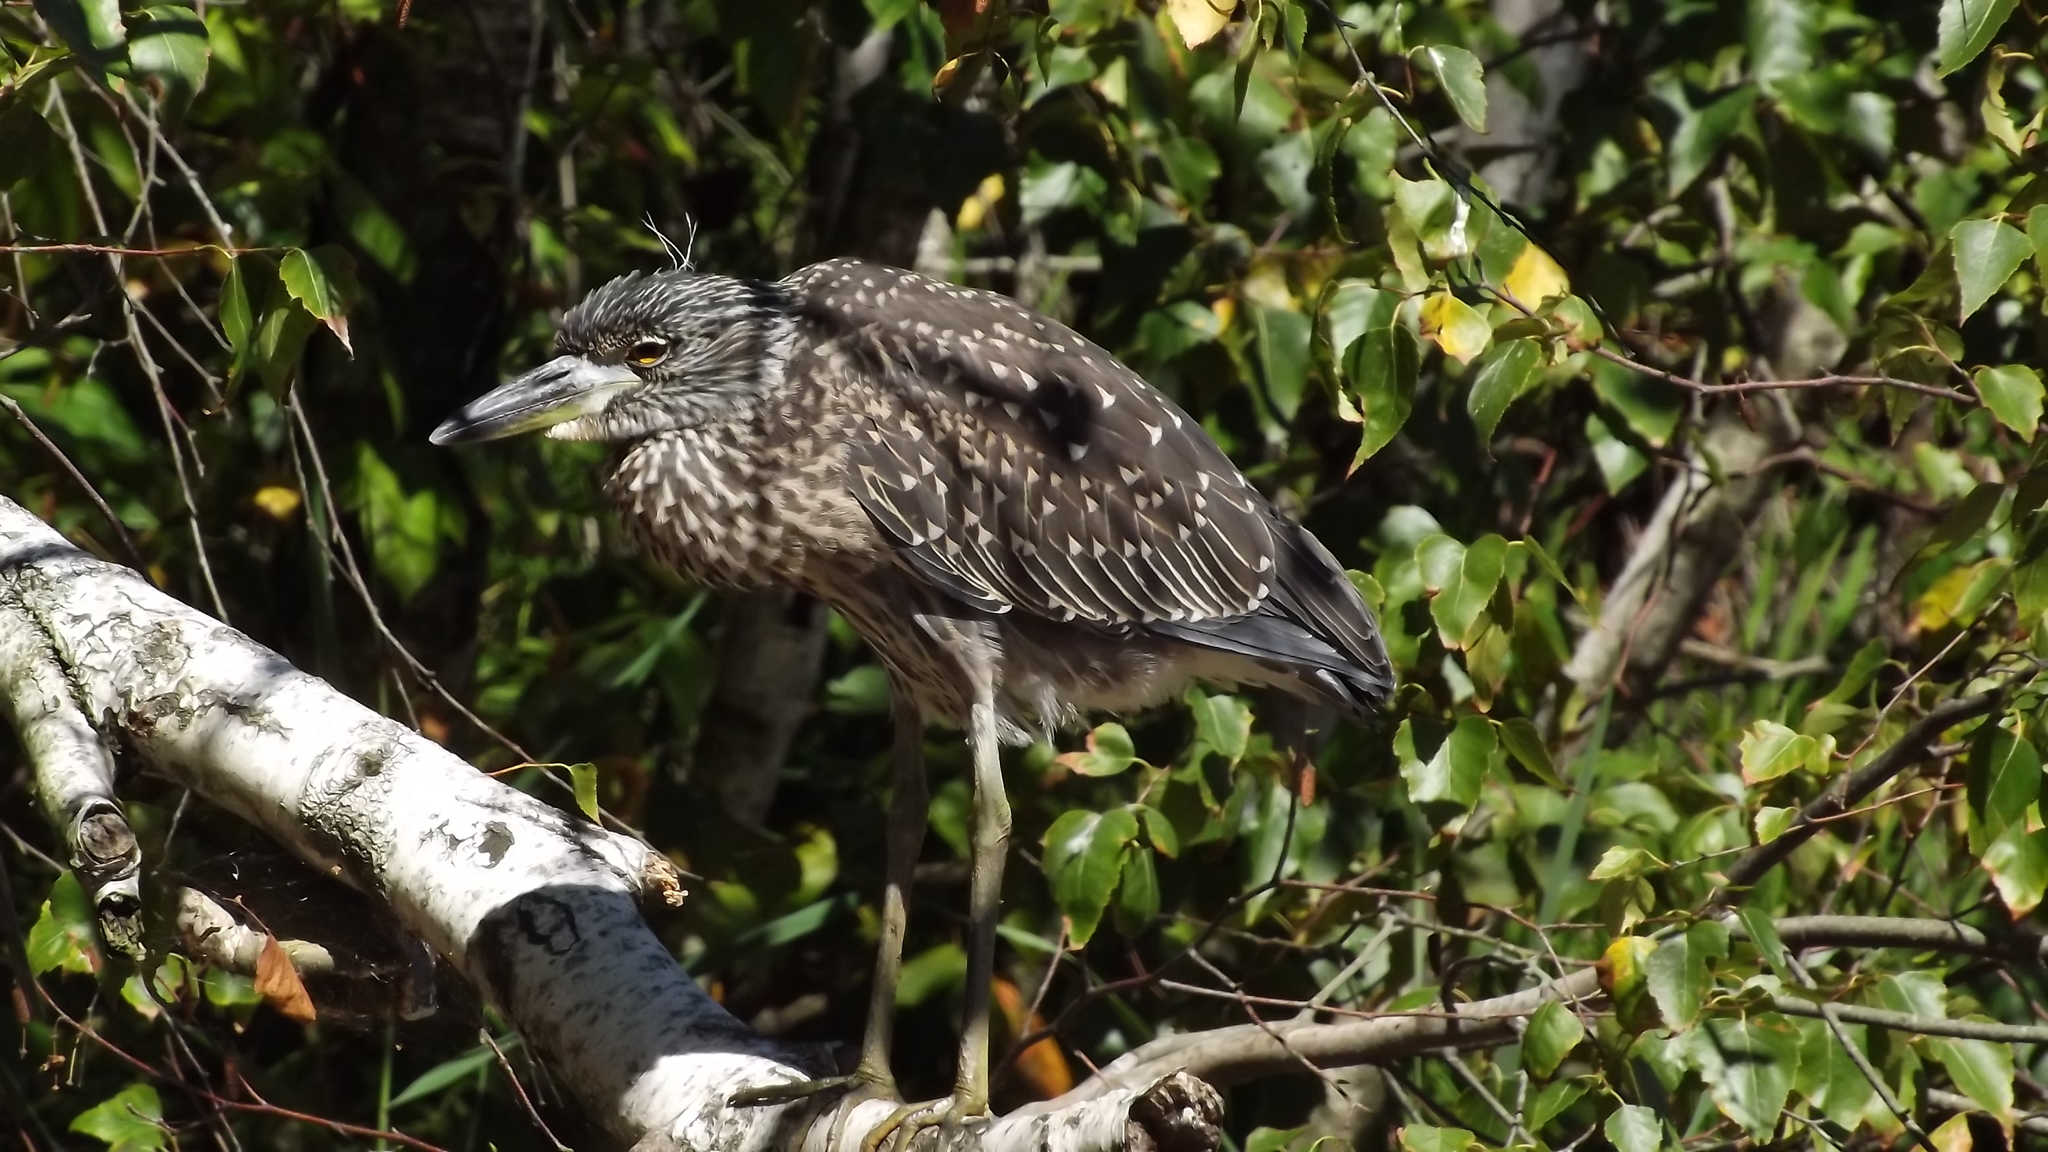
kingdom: Animalia
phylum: Chordata
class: Aves
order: Pelecaniformes
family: Ardeidae
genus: Nyctanassa
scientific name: Nyctanassa violacea
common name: Yellow-crowned night heron
